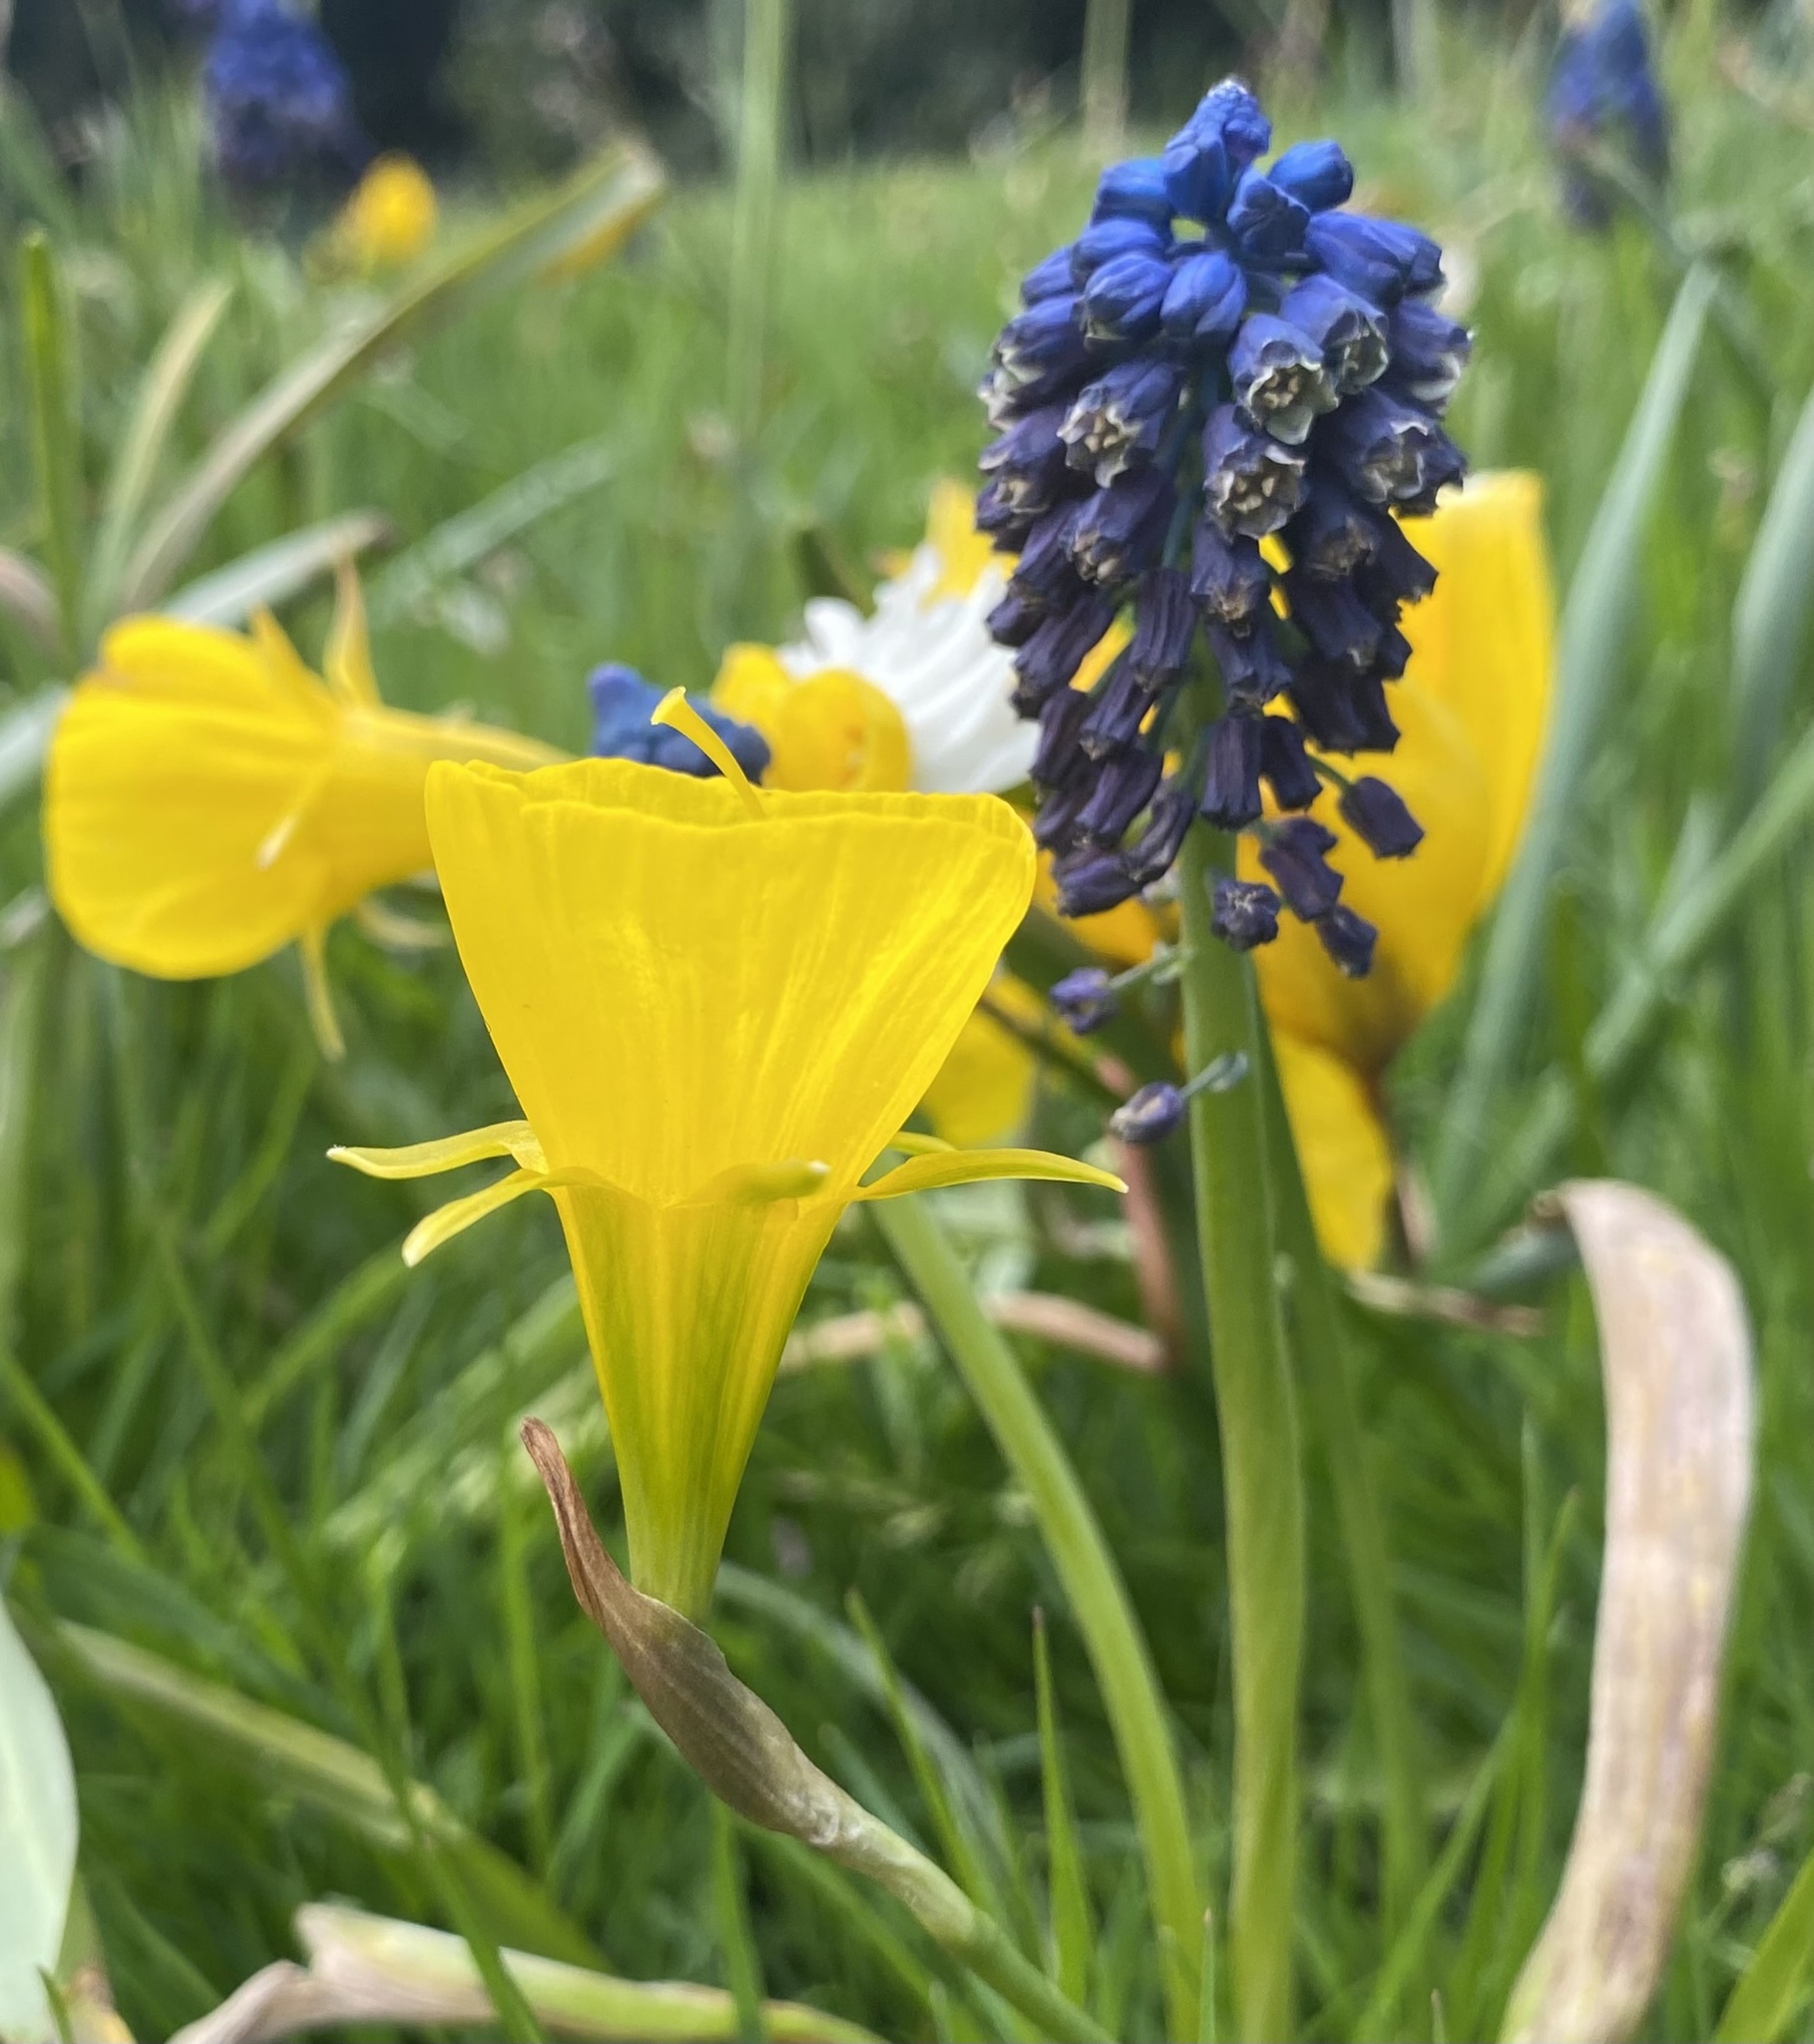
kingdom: Plantae
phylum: Tracheophyta
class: Liliopsida
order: Asparagales
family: Amaryllidaceae
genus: Narcissus
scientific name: Narcissus bulbocodium
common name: Hoop-petticoat daffodil
